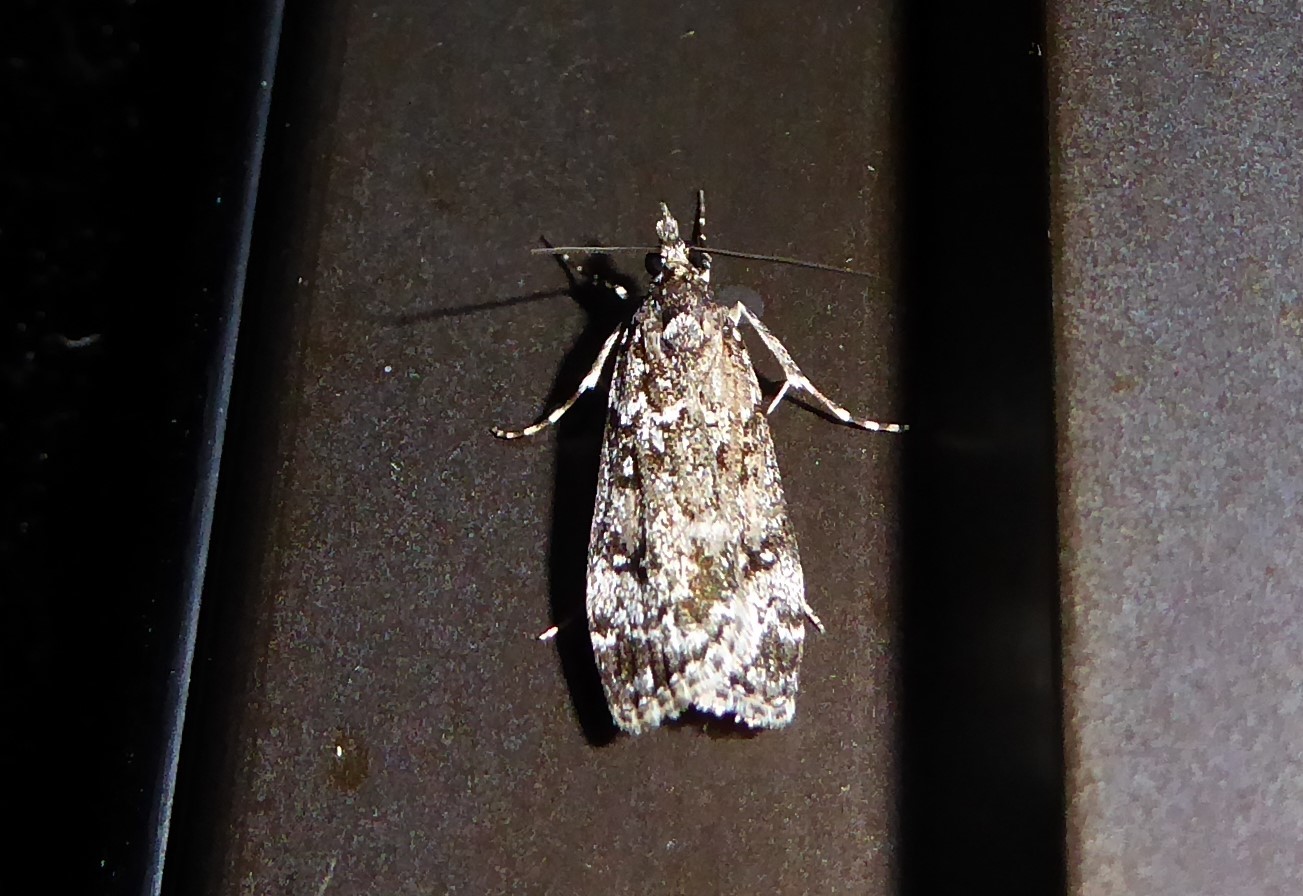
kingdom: Animalia
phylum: Arthropoda
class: Insecta
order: Lepidoptera
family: Crambidae
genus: Eudonia
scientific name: Eudonia philerga
